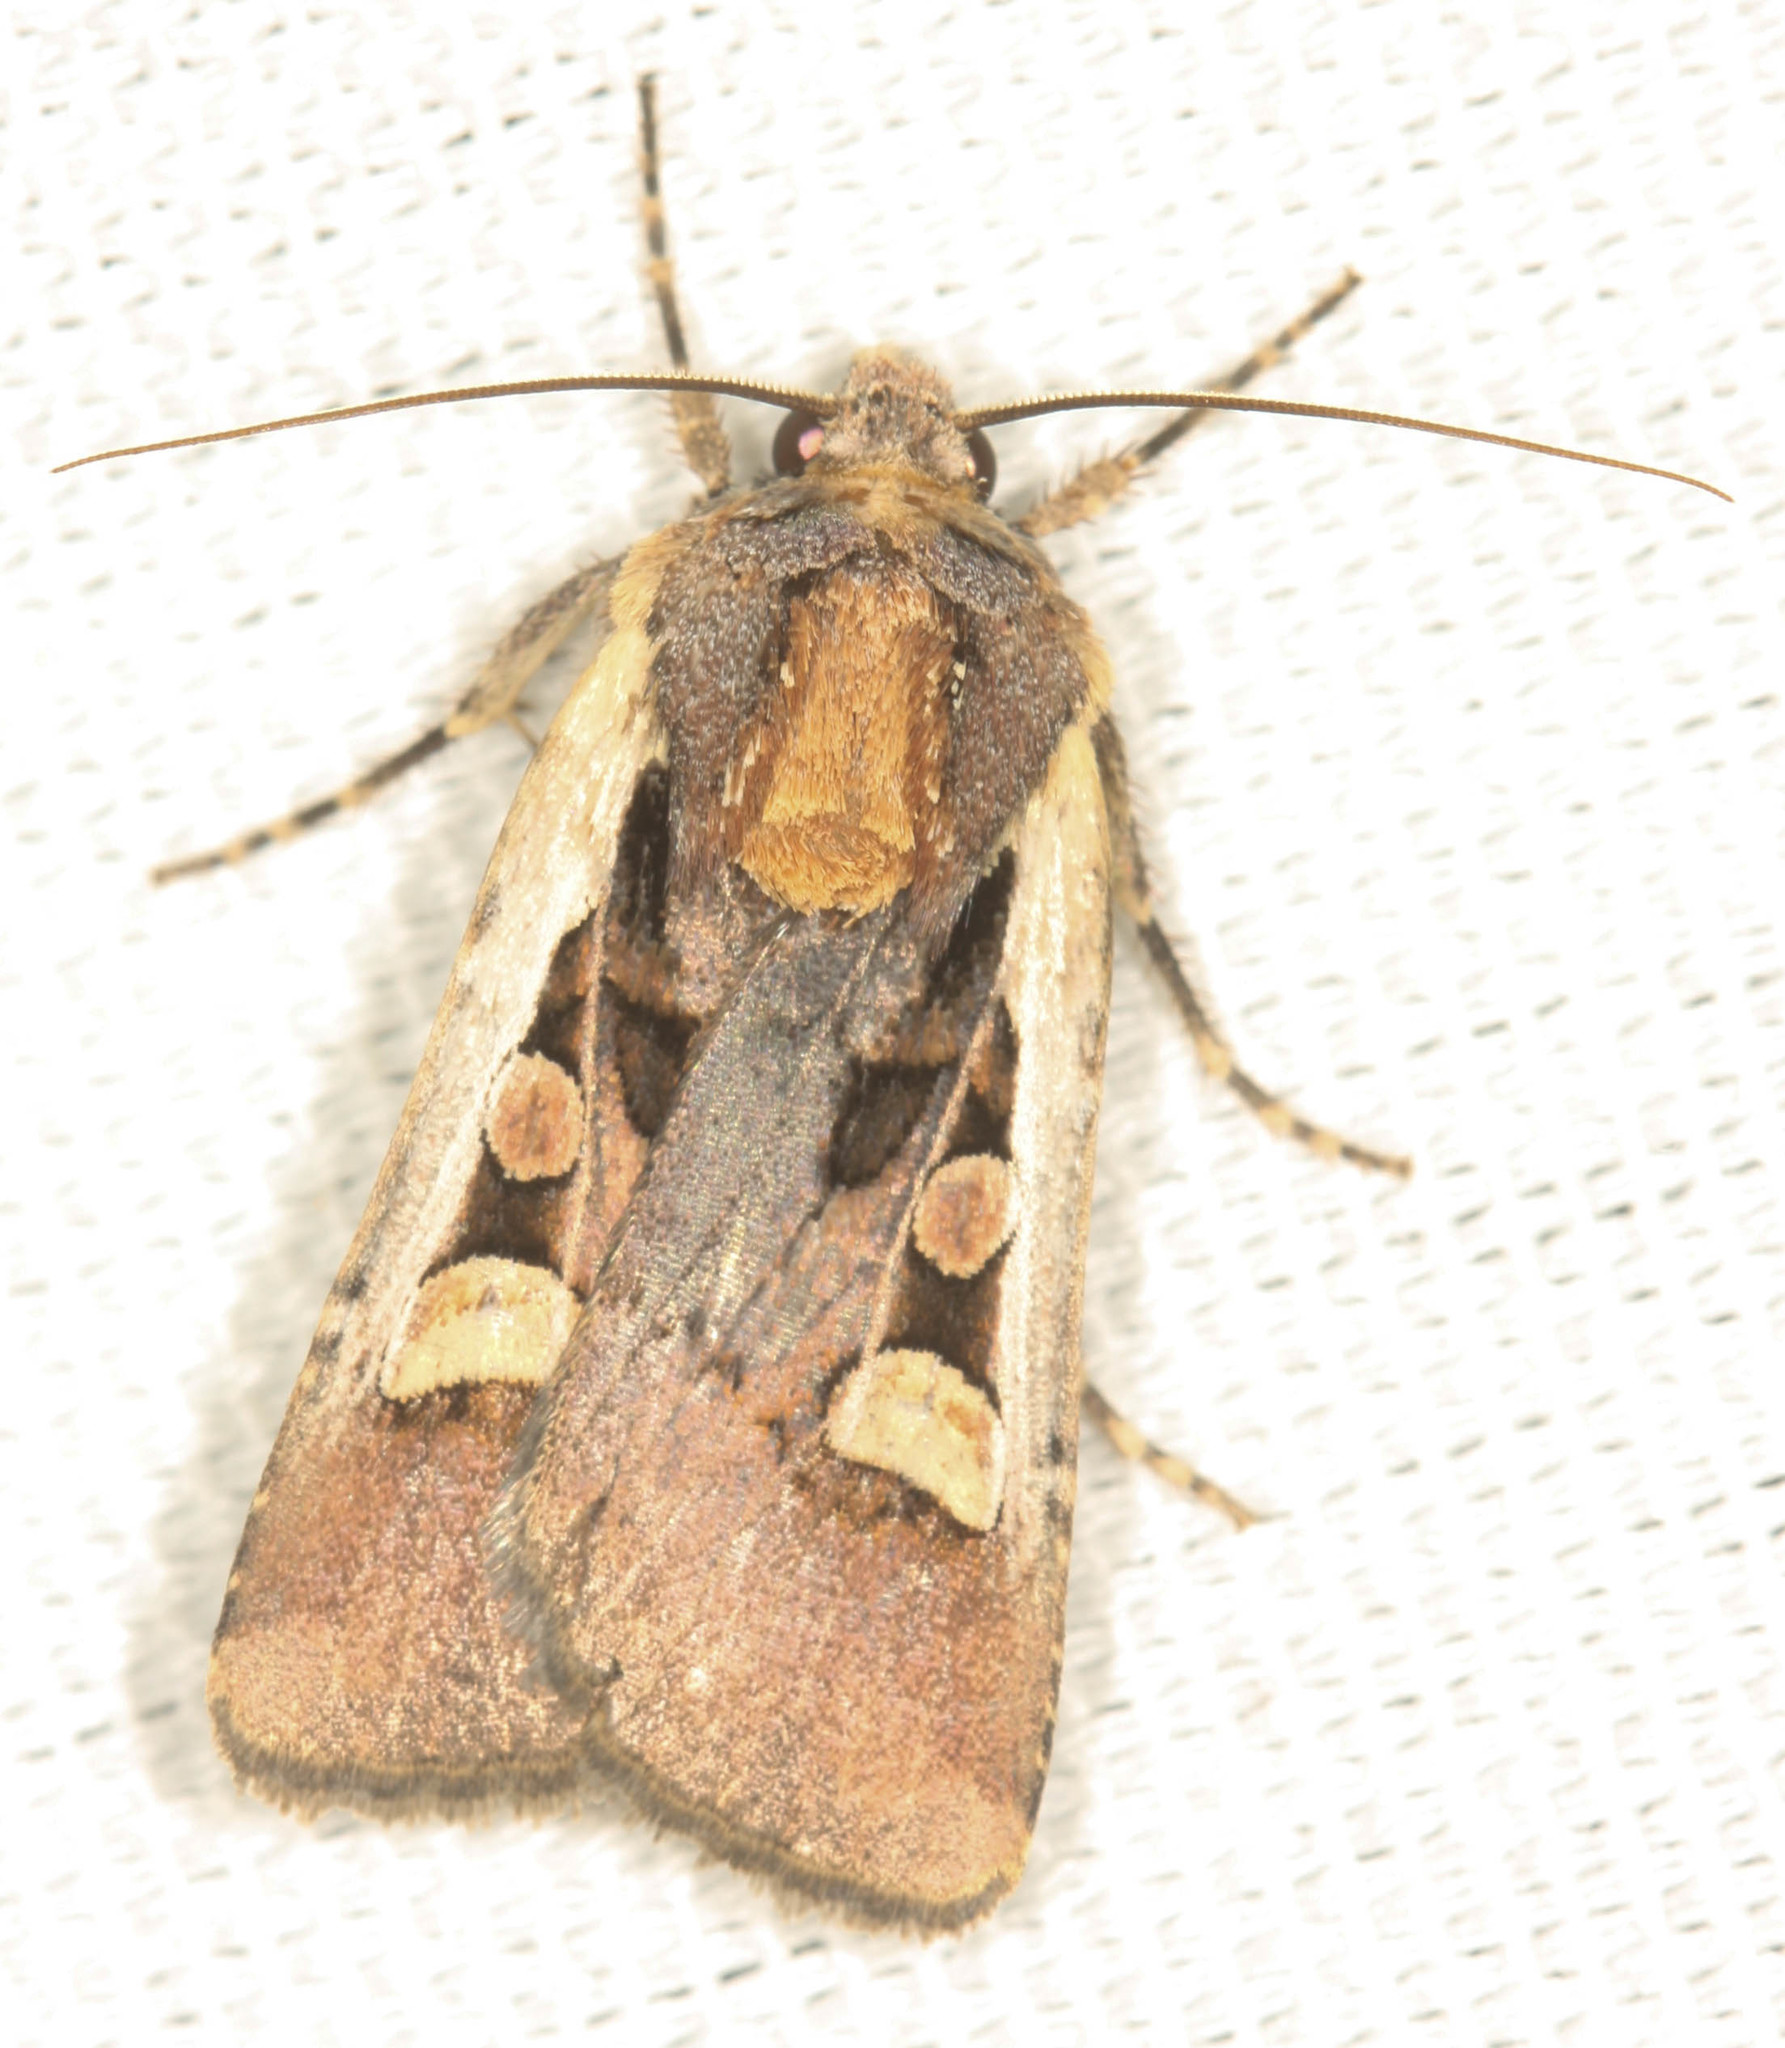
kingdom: Animalia
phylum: Arthropoda
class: Insecta
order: Lepidoptera
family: Noctuidae
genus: Euxoa
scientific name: Euxoa obeliscoides
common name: Obelisk dart moth
